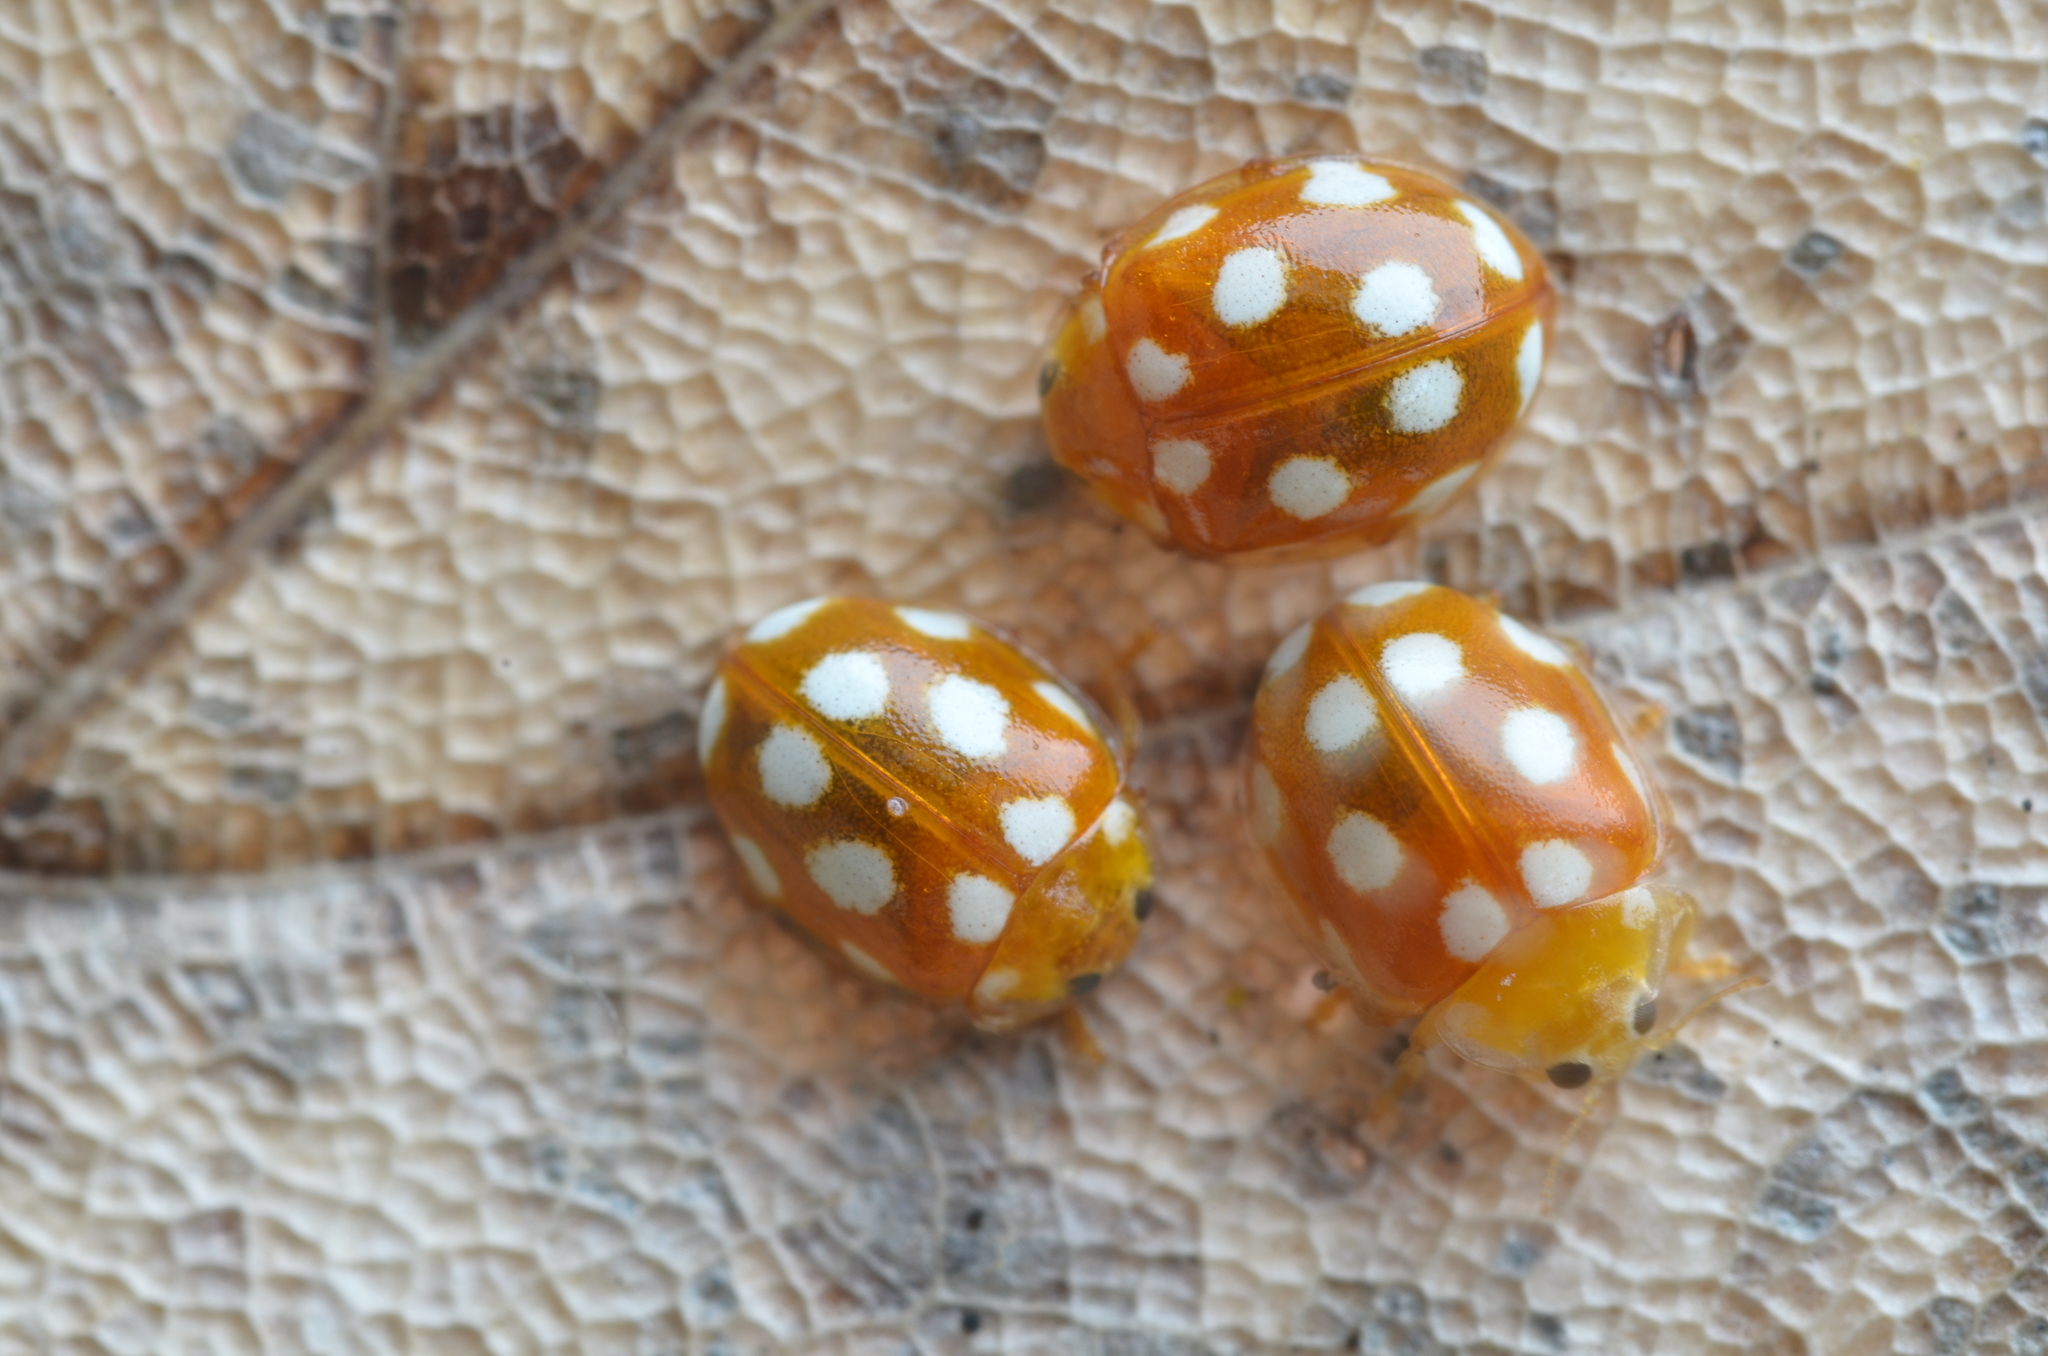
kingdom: Animalia
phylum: Arthropoda
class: Insecta
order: Coleoptera
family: Coccinellidae
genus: Vibidia
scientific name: Vibidia duodecimguttata
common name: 12-spot ladybird
